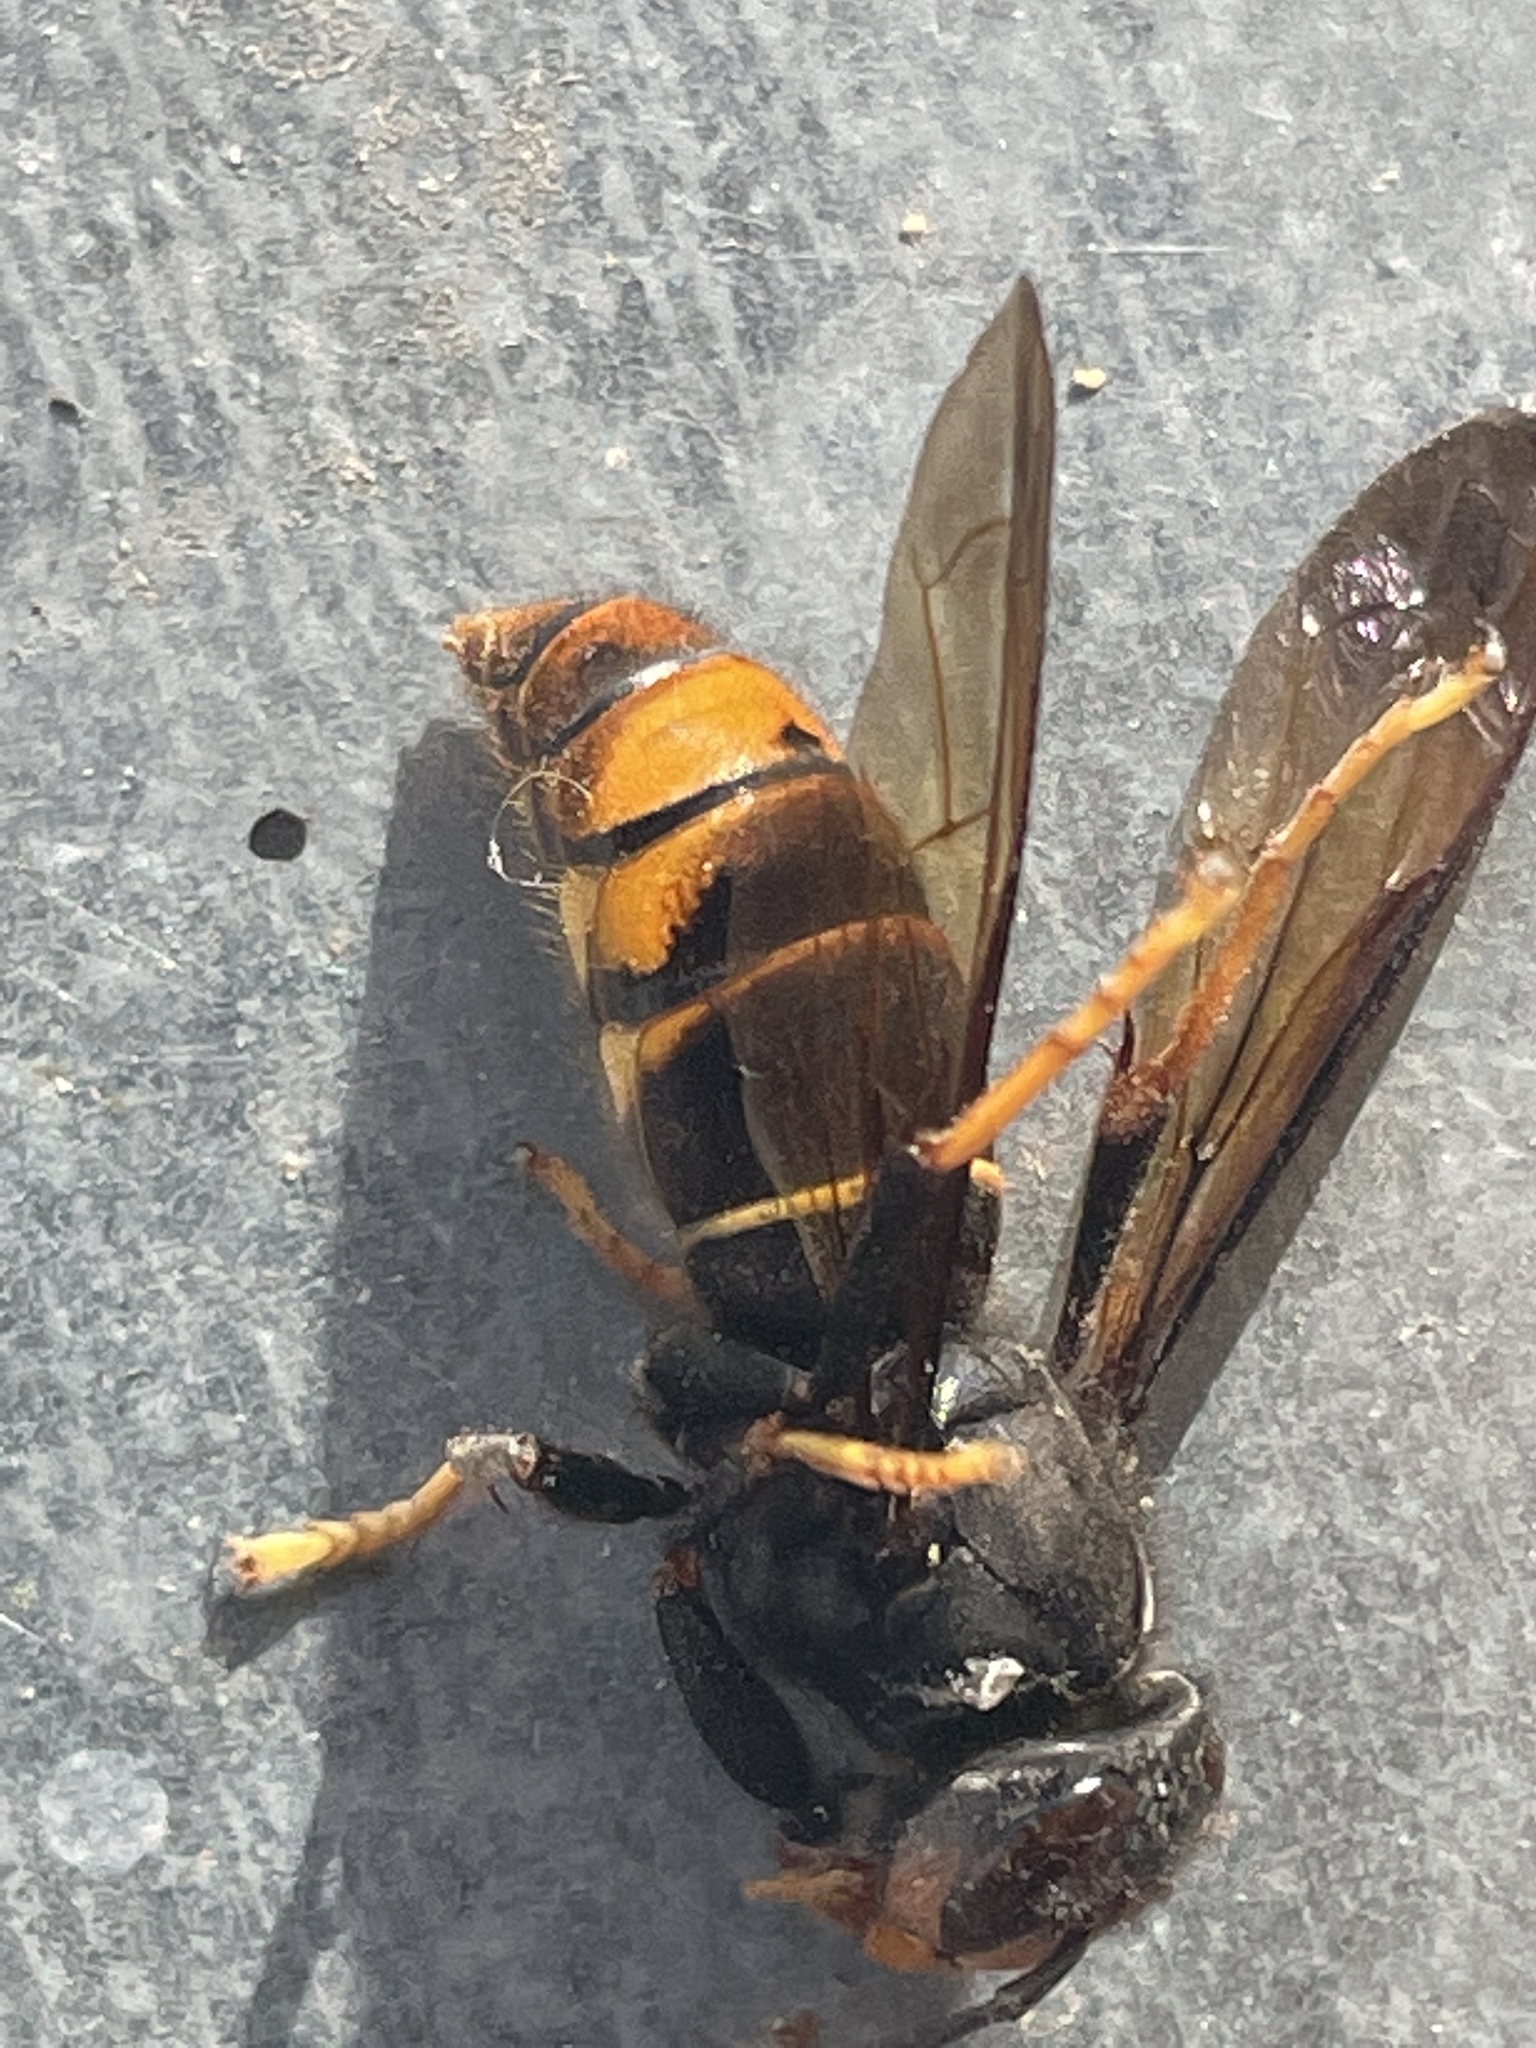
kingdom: Animalia
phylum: Arthropoda
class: Insecta
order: Hymenoptera
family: Vespidae
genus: Vespa
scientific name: Vespa velutina
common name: Asian hornet
